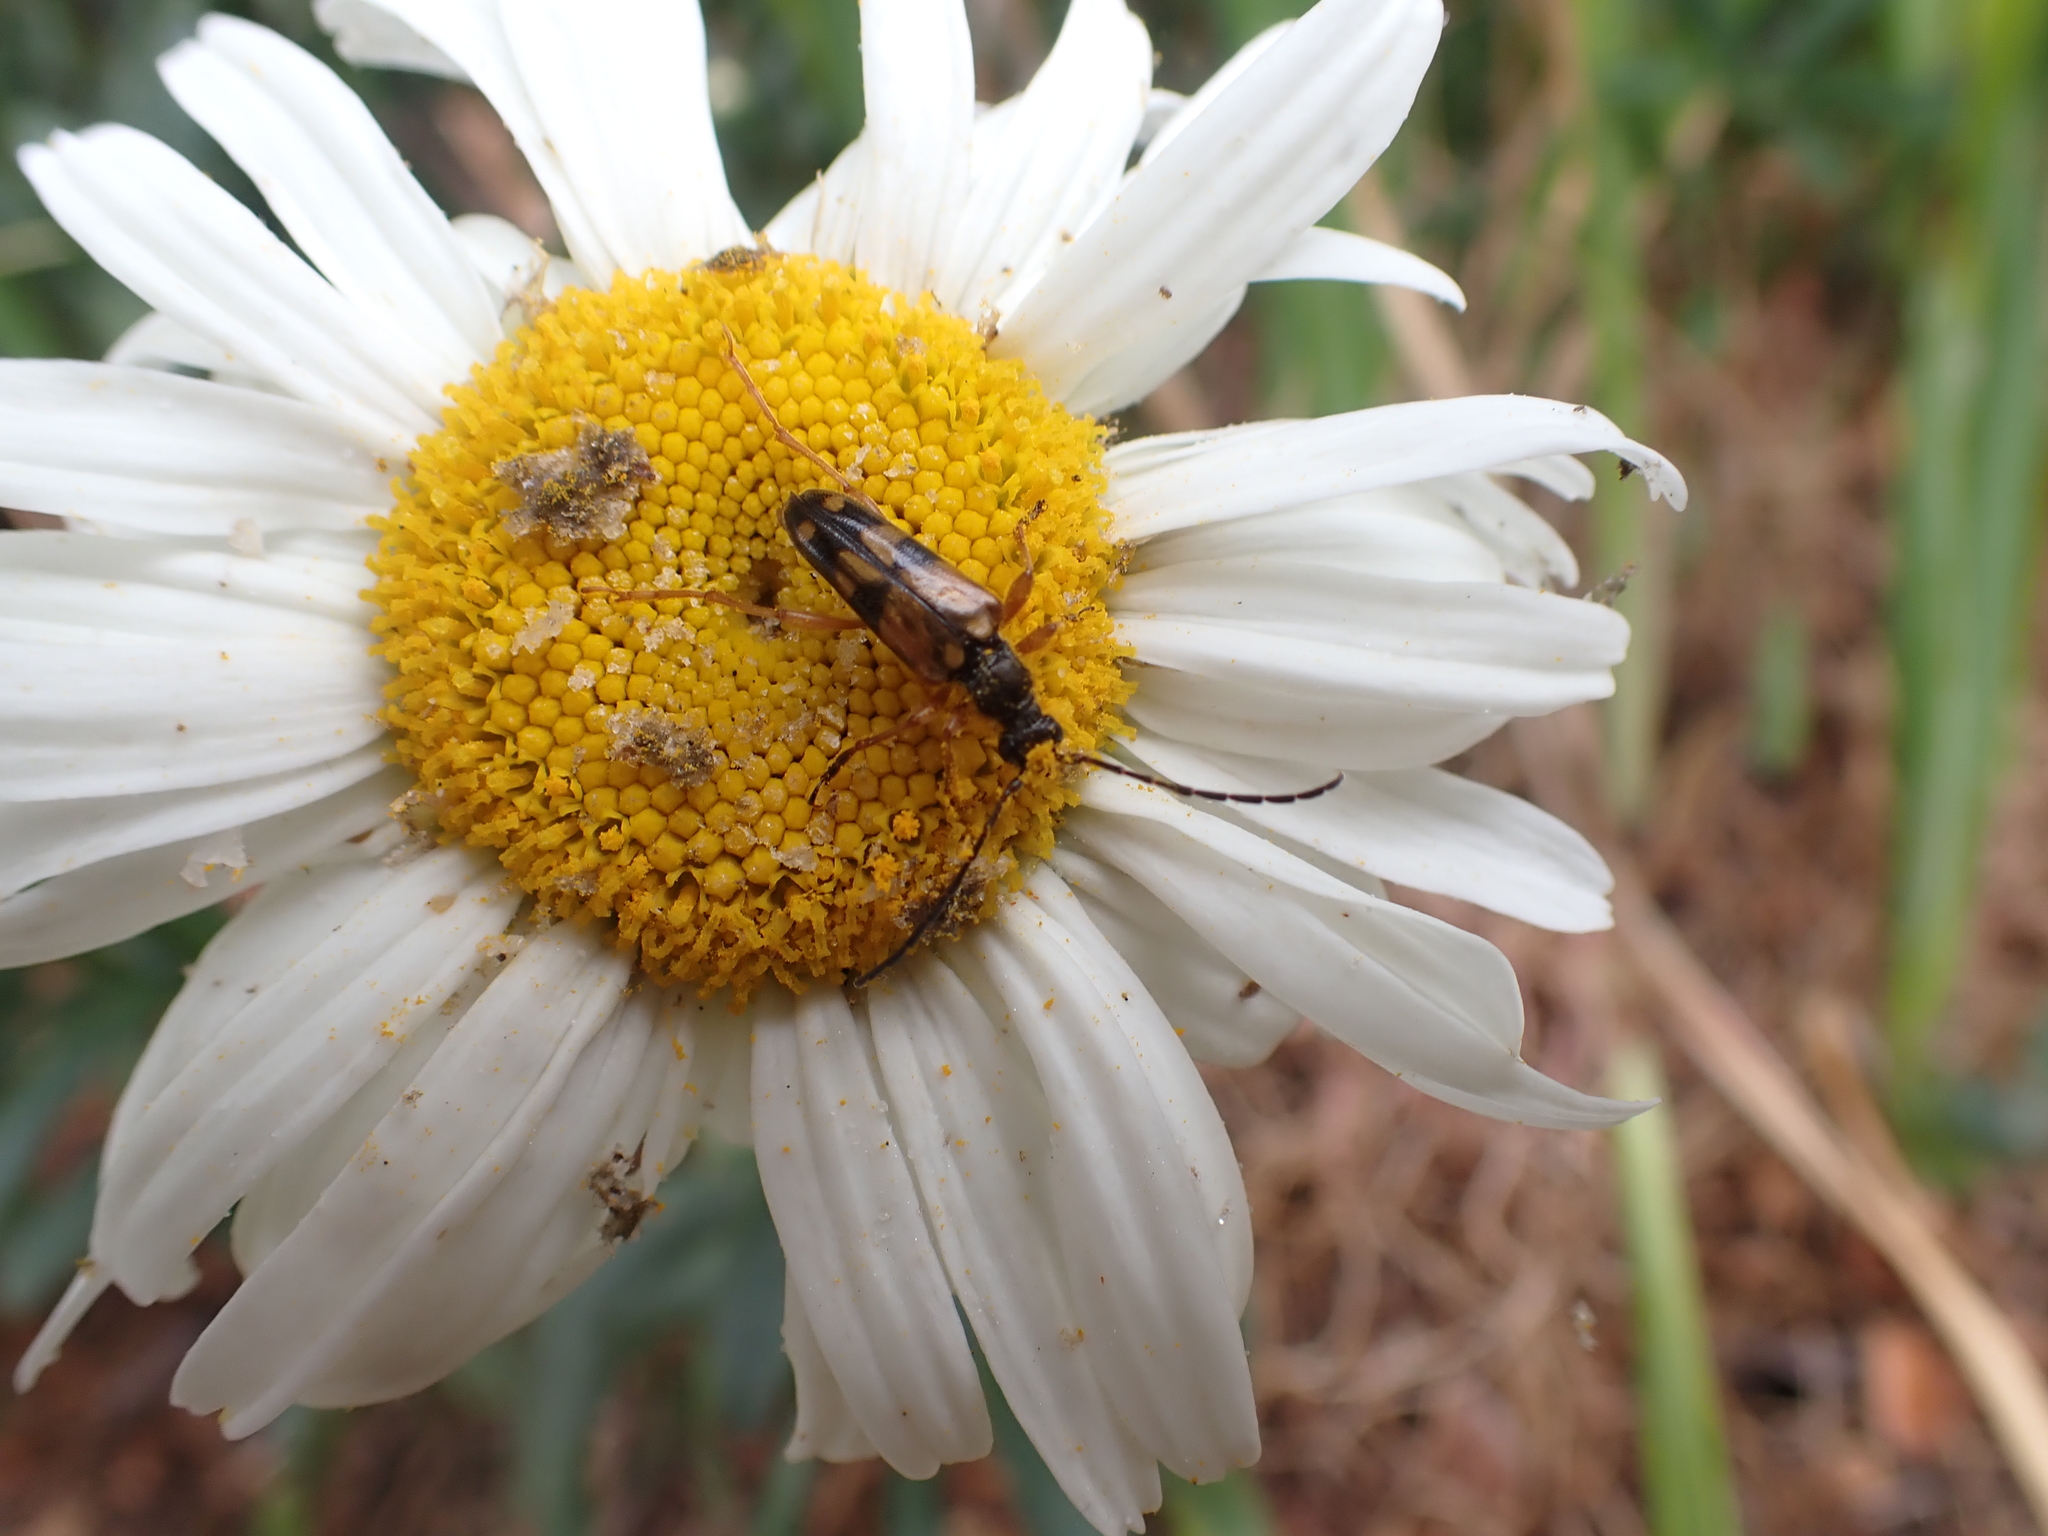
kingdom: Animalia
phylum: Arthropoda
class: Insecta
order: Coleoptera
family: Cerambycidae
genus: Xestoleptura
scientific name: Xestoleptura crassipes
